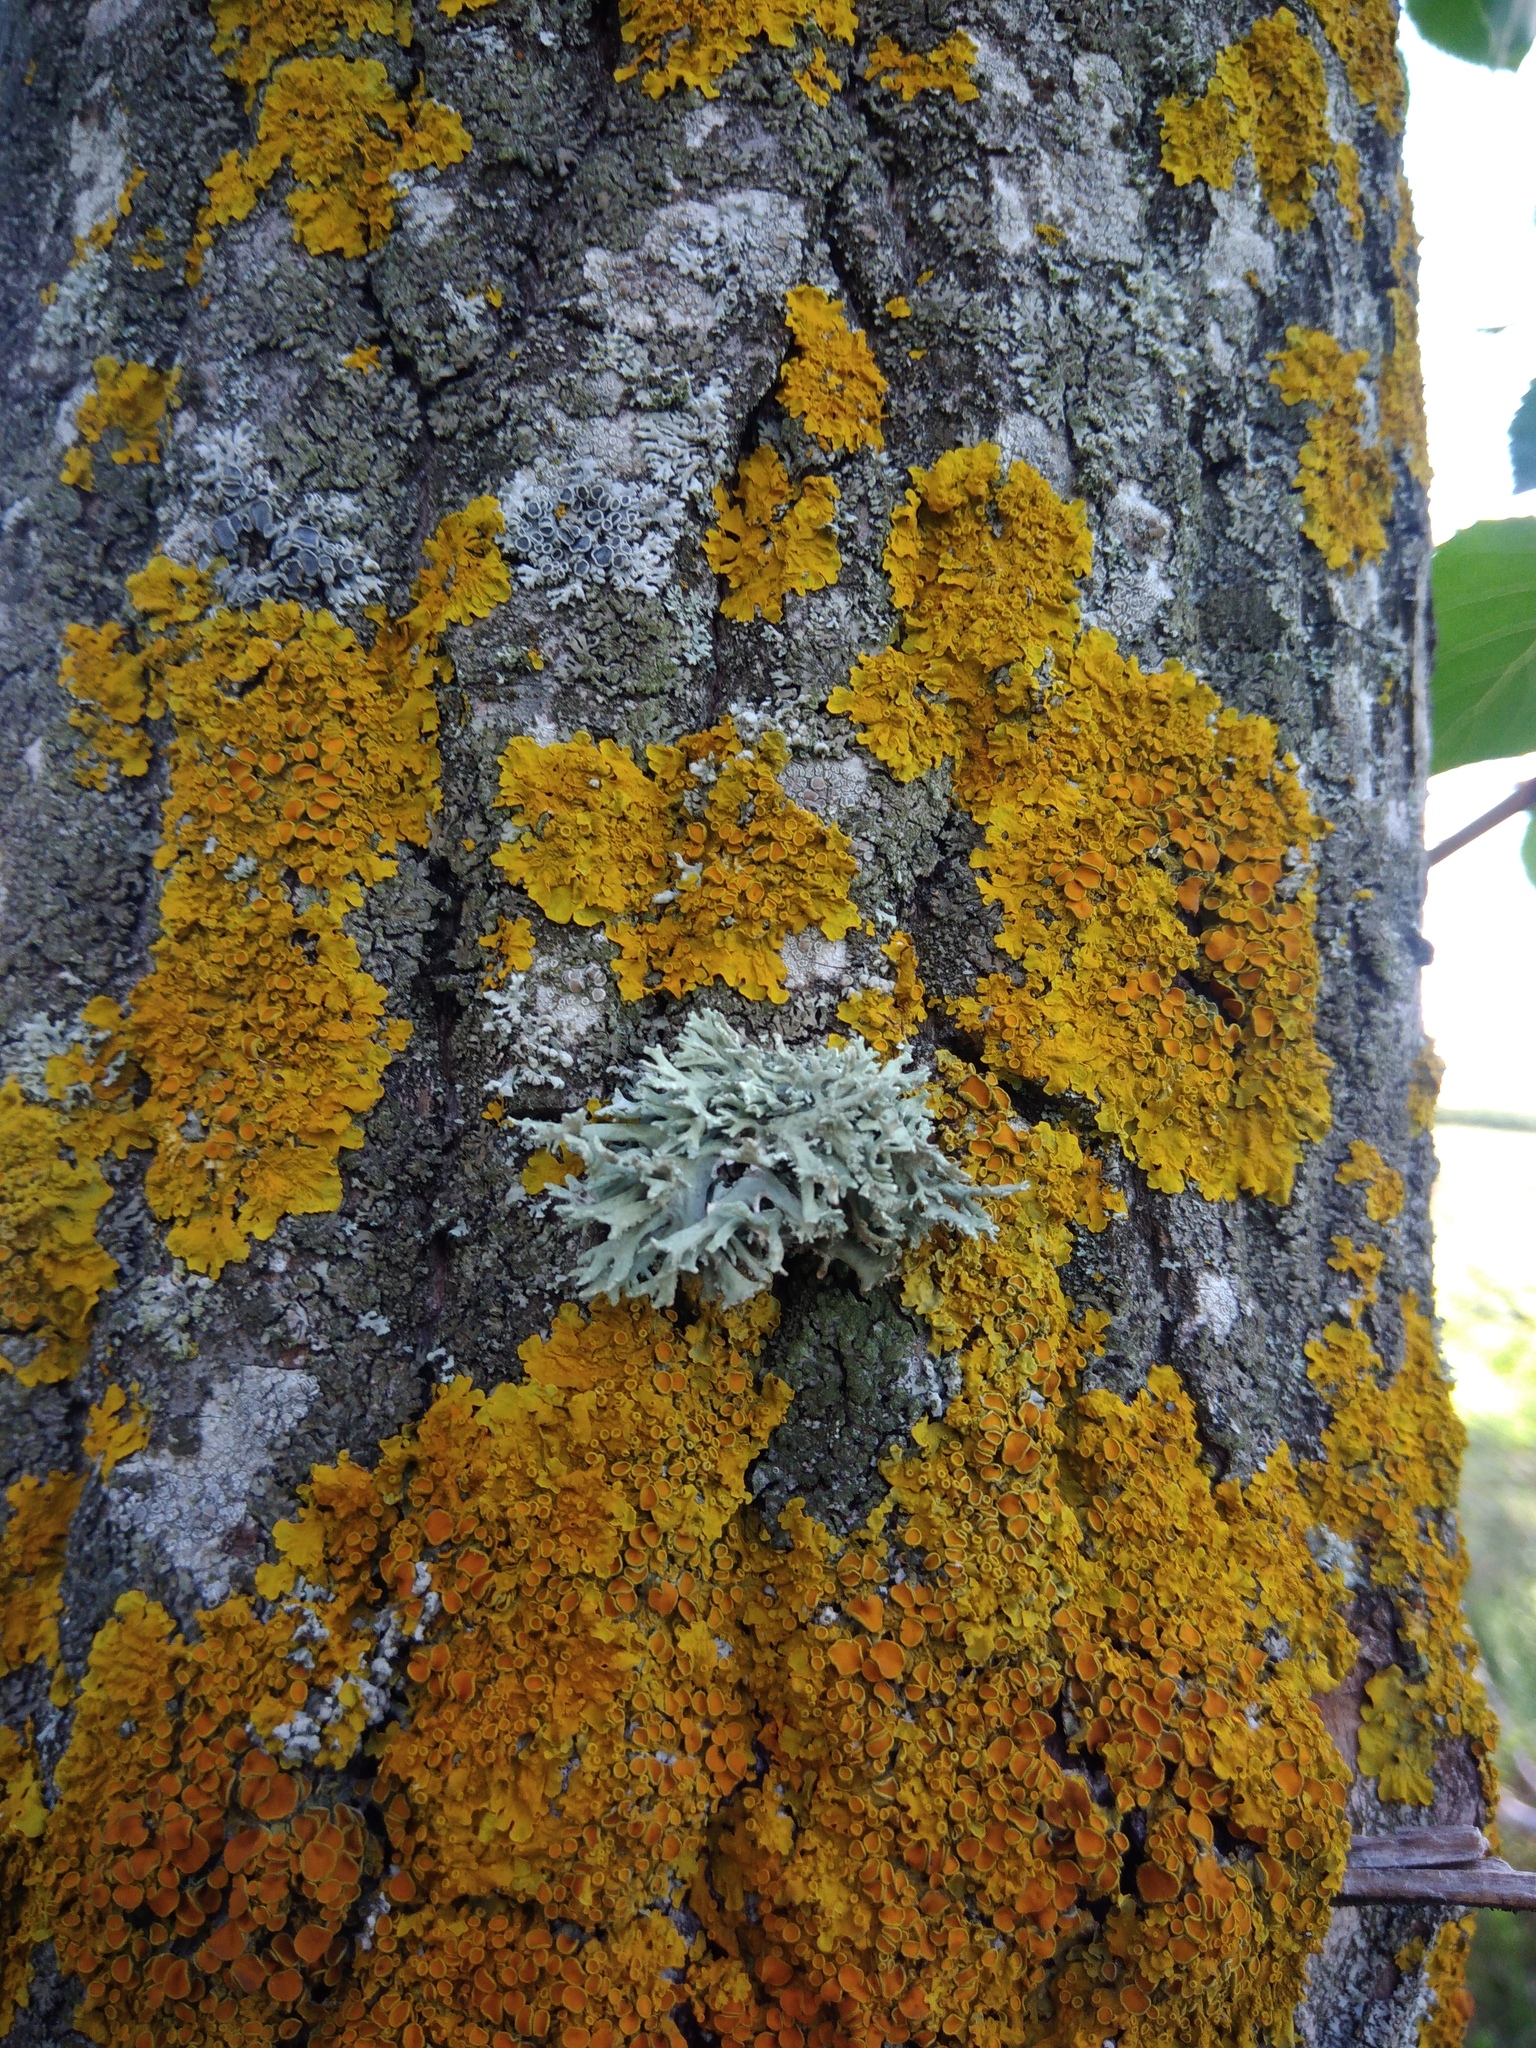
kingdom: Fungi
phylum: Ascomycota
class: Lecanoromycetes
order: Lecanorales
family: Parmeliaceae
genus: Evernia
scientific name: Evernia prunastri
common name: Oak moss
